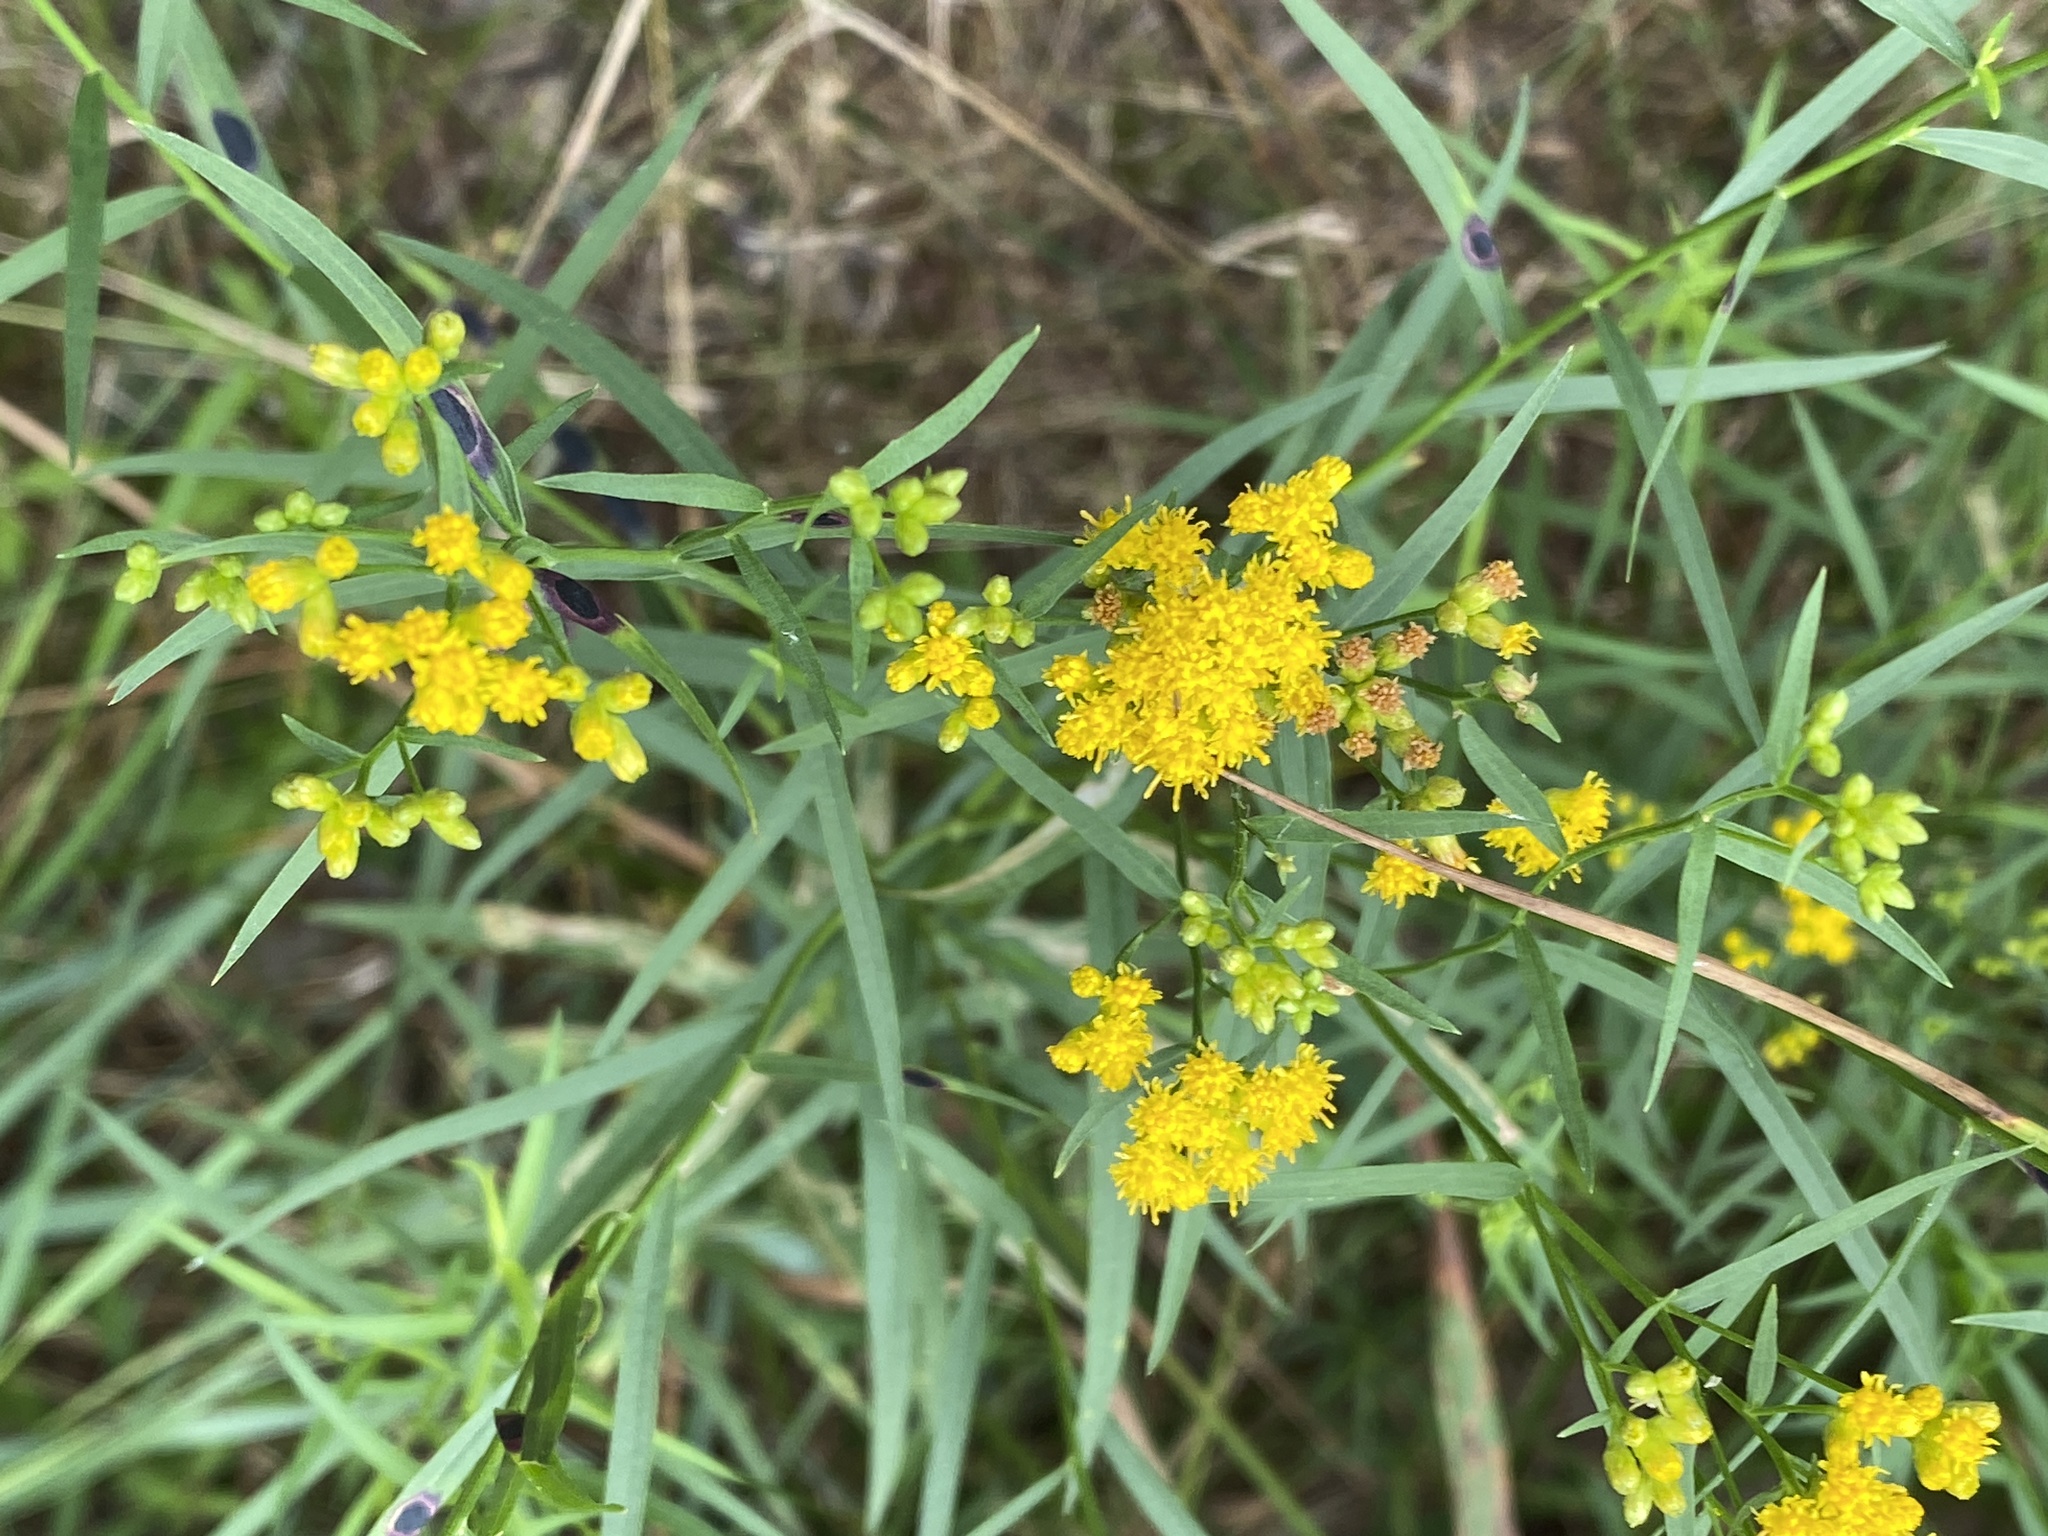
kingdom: Plantae
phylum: Tracheophyta
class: Magnoliopsida
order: Asterales
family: Asteraceae
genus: Euthamia
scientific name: Euthamia graminifolia
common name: Common goldentop
